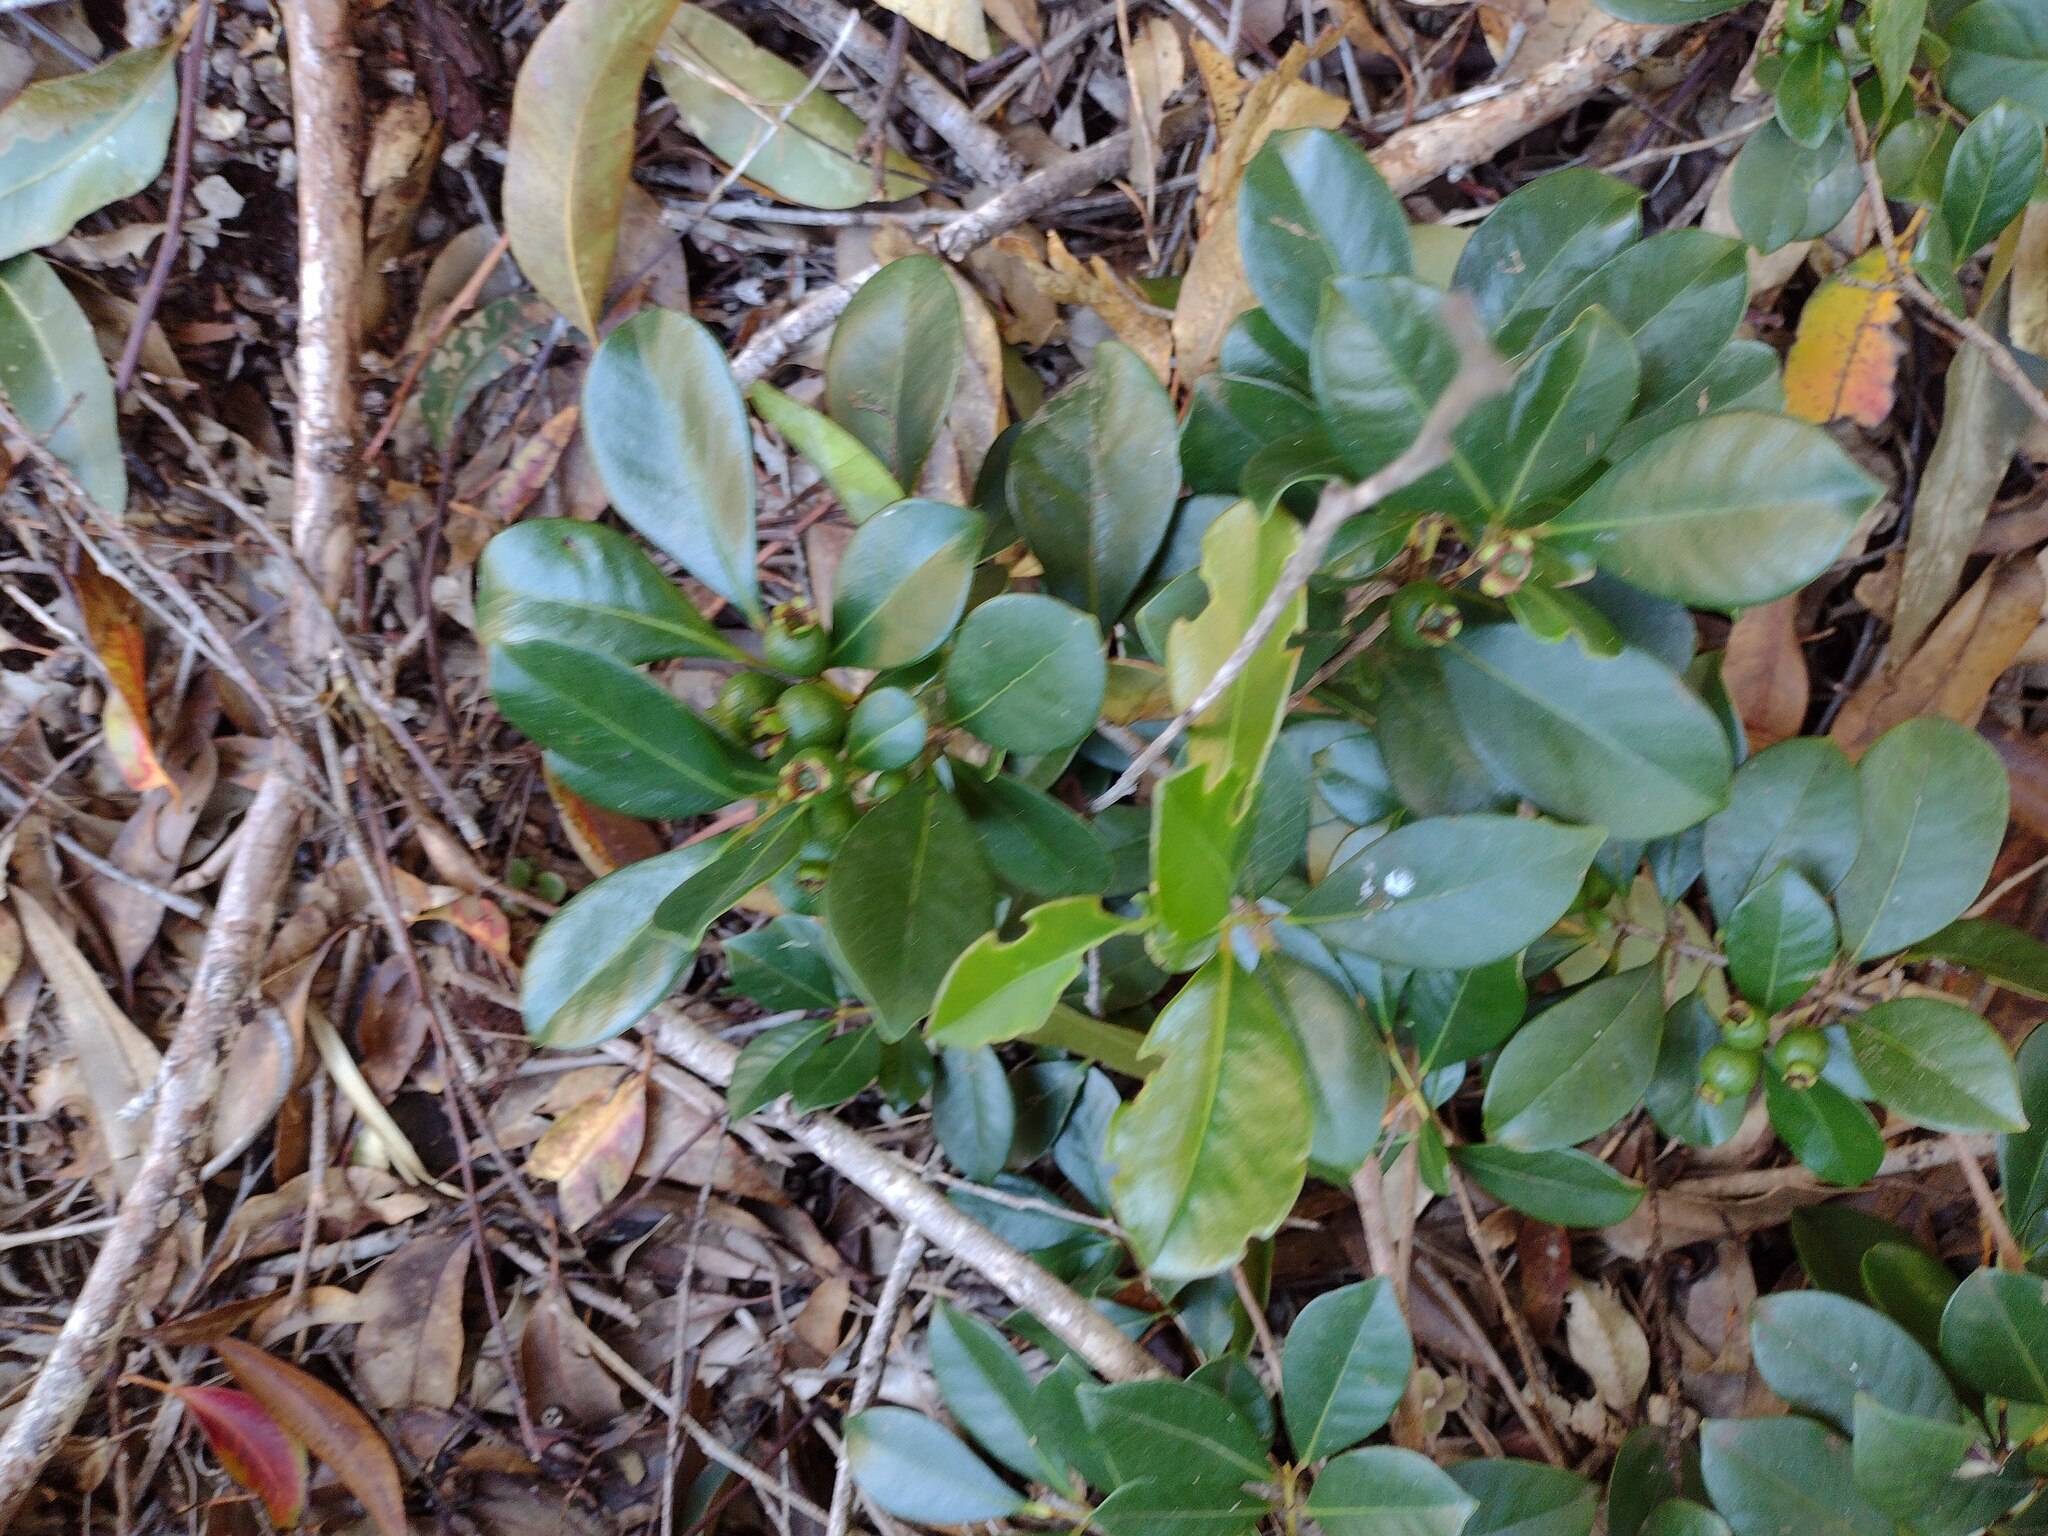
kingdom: Plantae
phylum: Tracheophyta
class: Magnoliopsida
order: Myrtales
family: Myrtaceae
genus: Psidium
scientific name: Psidium cattleianum
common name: Strawberry guava
